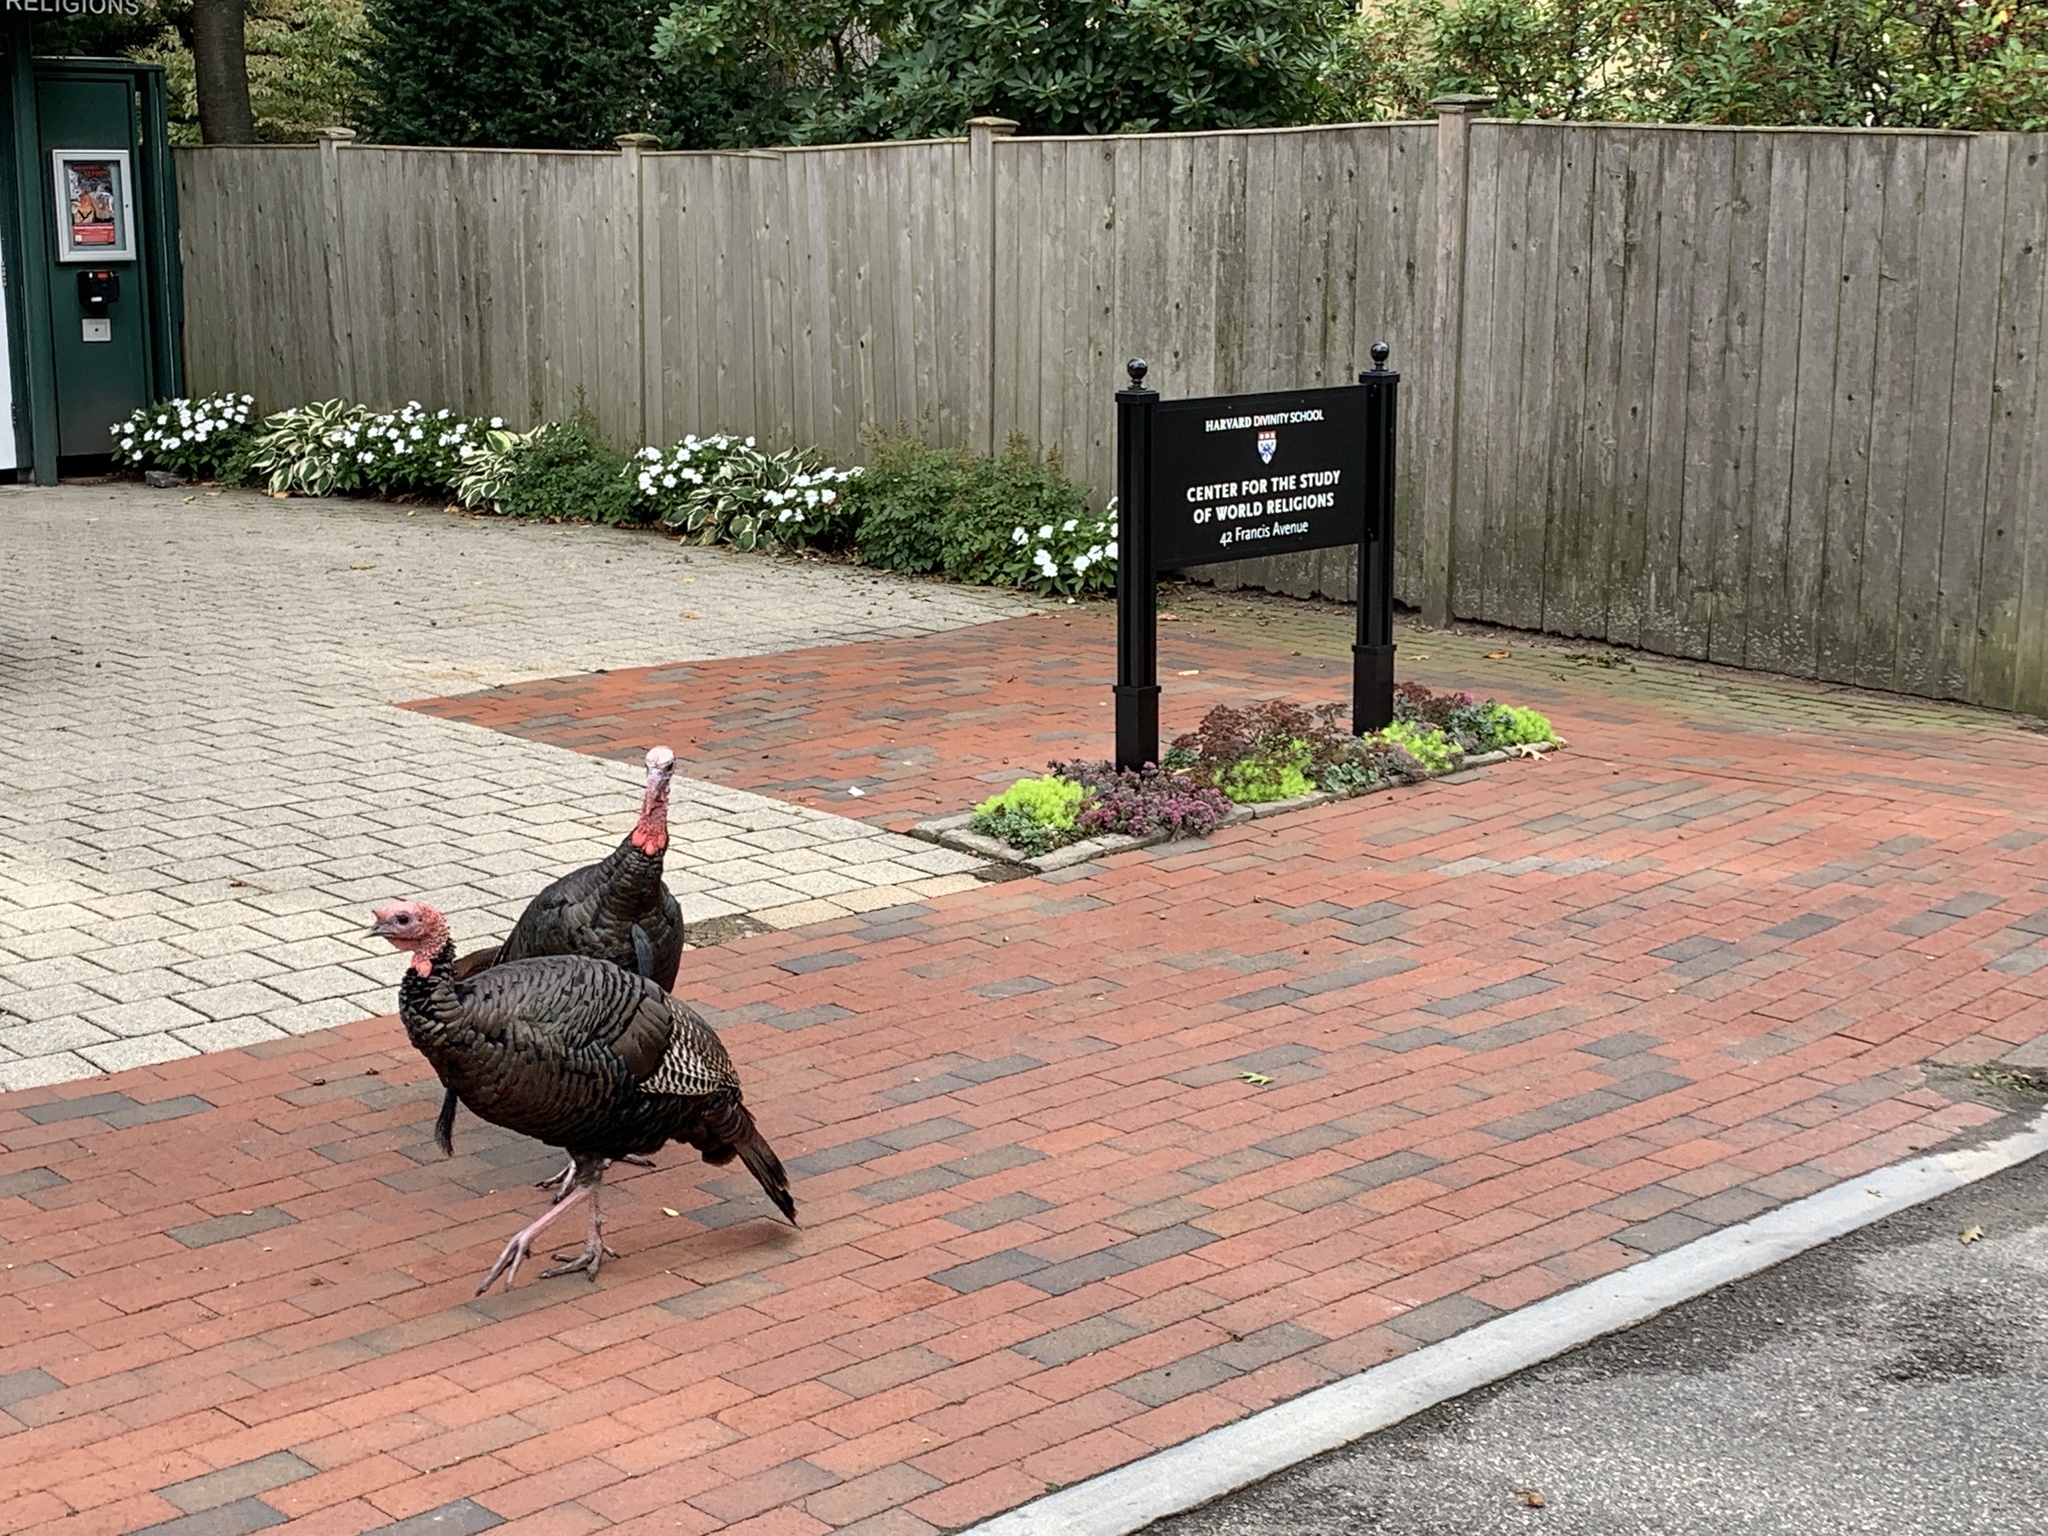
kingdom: Animalia
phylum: Chordata
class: Aves
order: Galliformes
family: Phasianidae
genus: Meleagris
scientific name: Meleagris gallopavo
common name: Wild turkey
